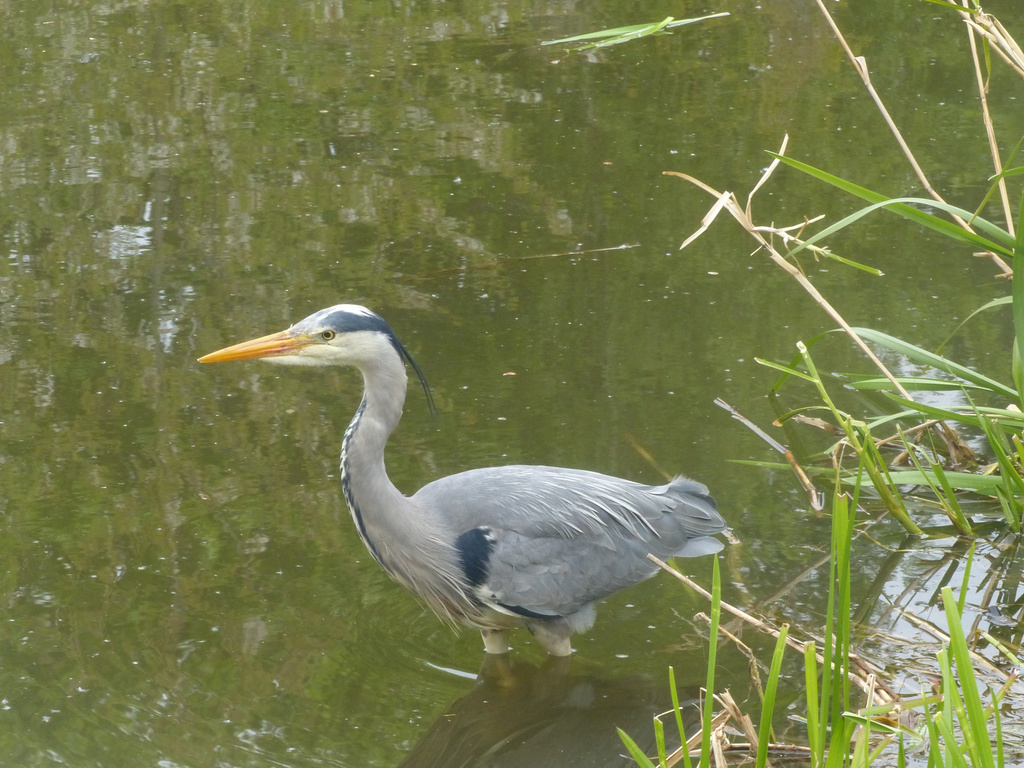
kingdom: Animalia
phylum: Chordata
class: Aves
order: Pelecaniformes
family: Ardeidae
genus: Ardea
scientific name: Ardea cinerea
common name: Grey heron
